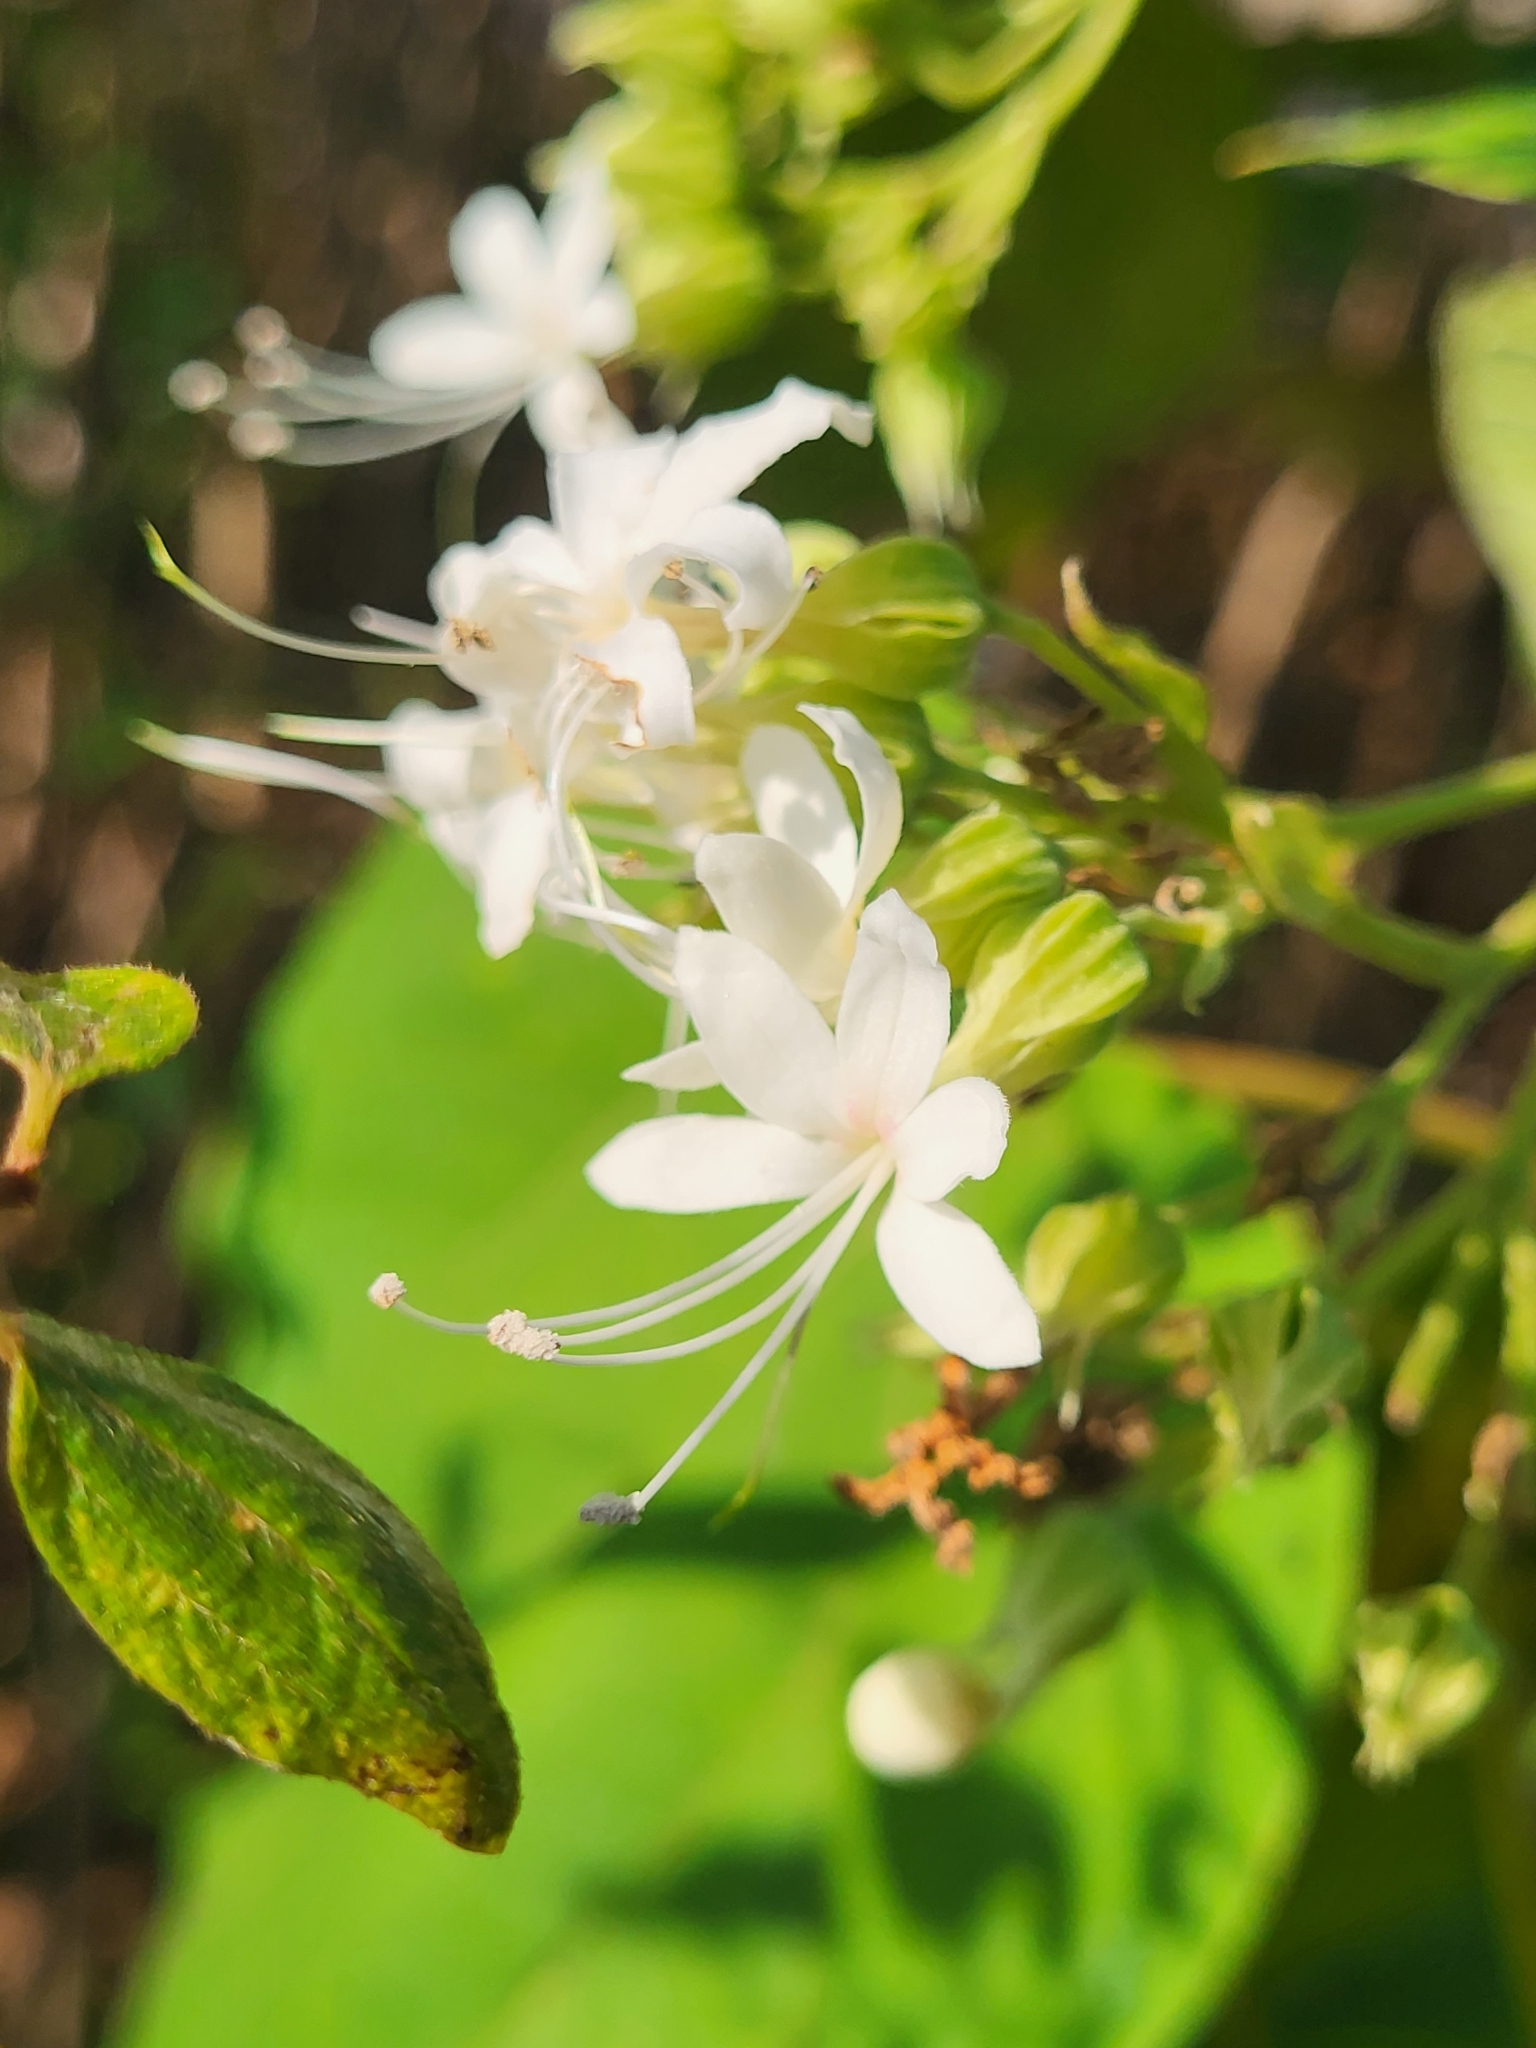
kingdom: Plantae
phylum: Tracheophyta
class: Magnoliopsida
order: Lamiales
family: Lamiaceae
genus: Clerodendrum
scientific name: Clerodendrum infortunatum
